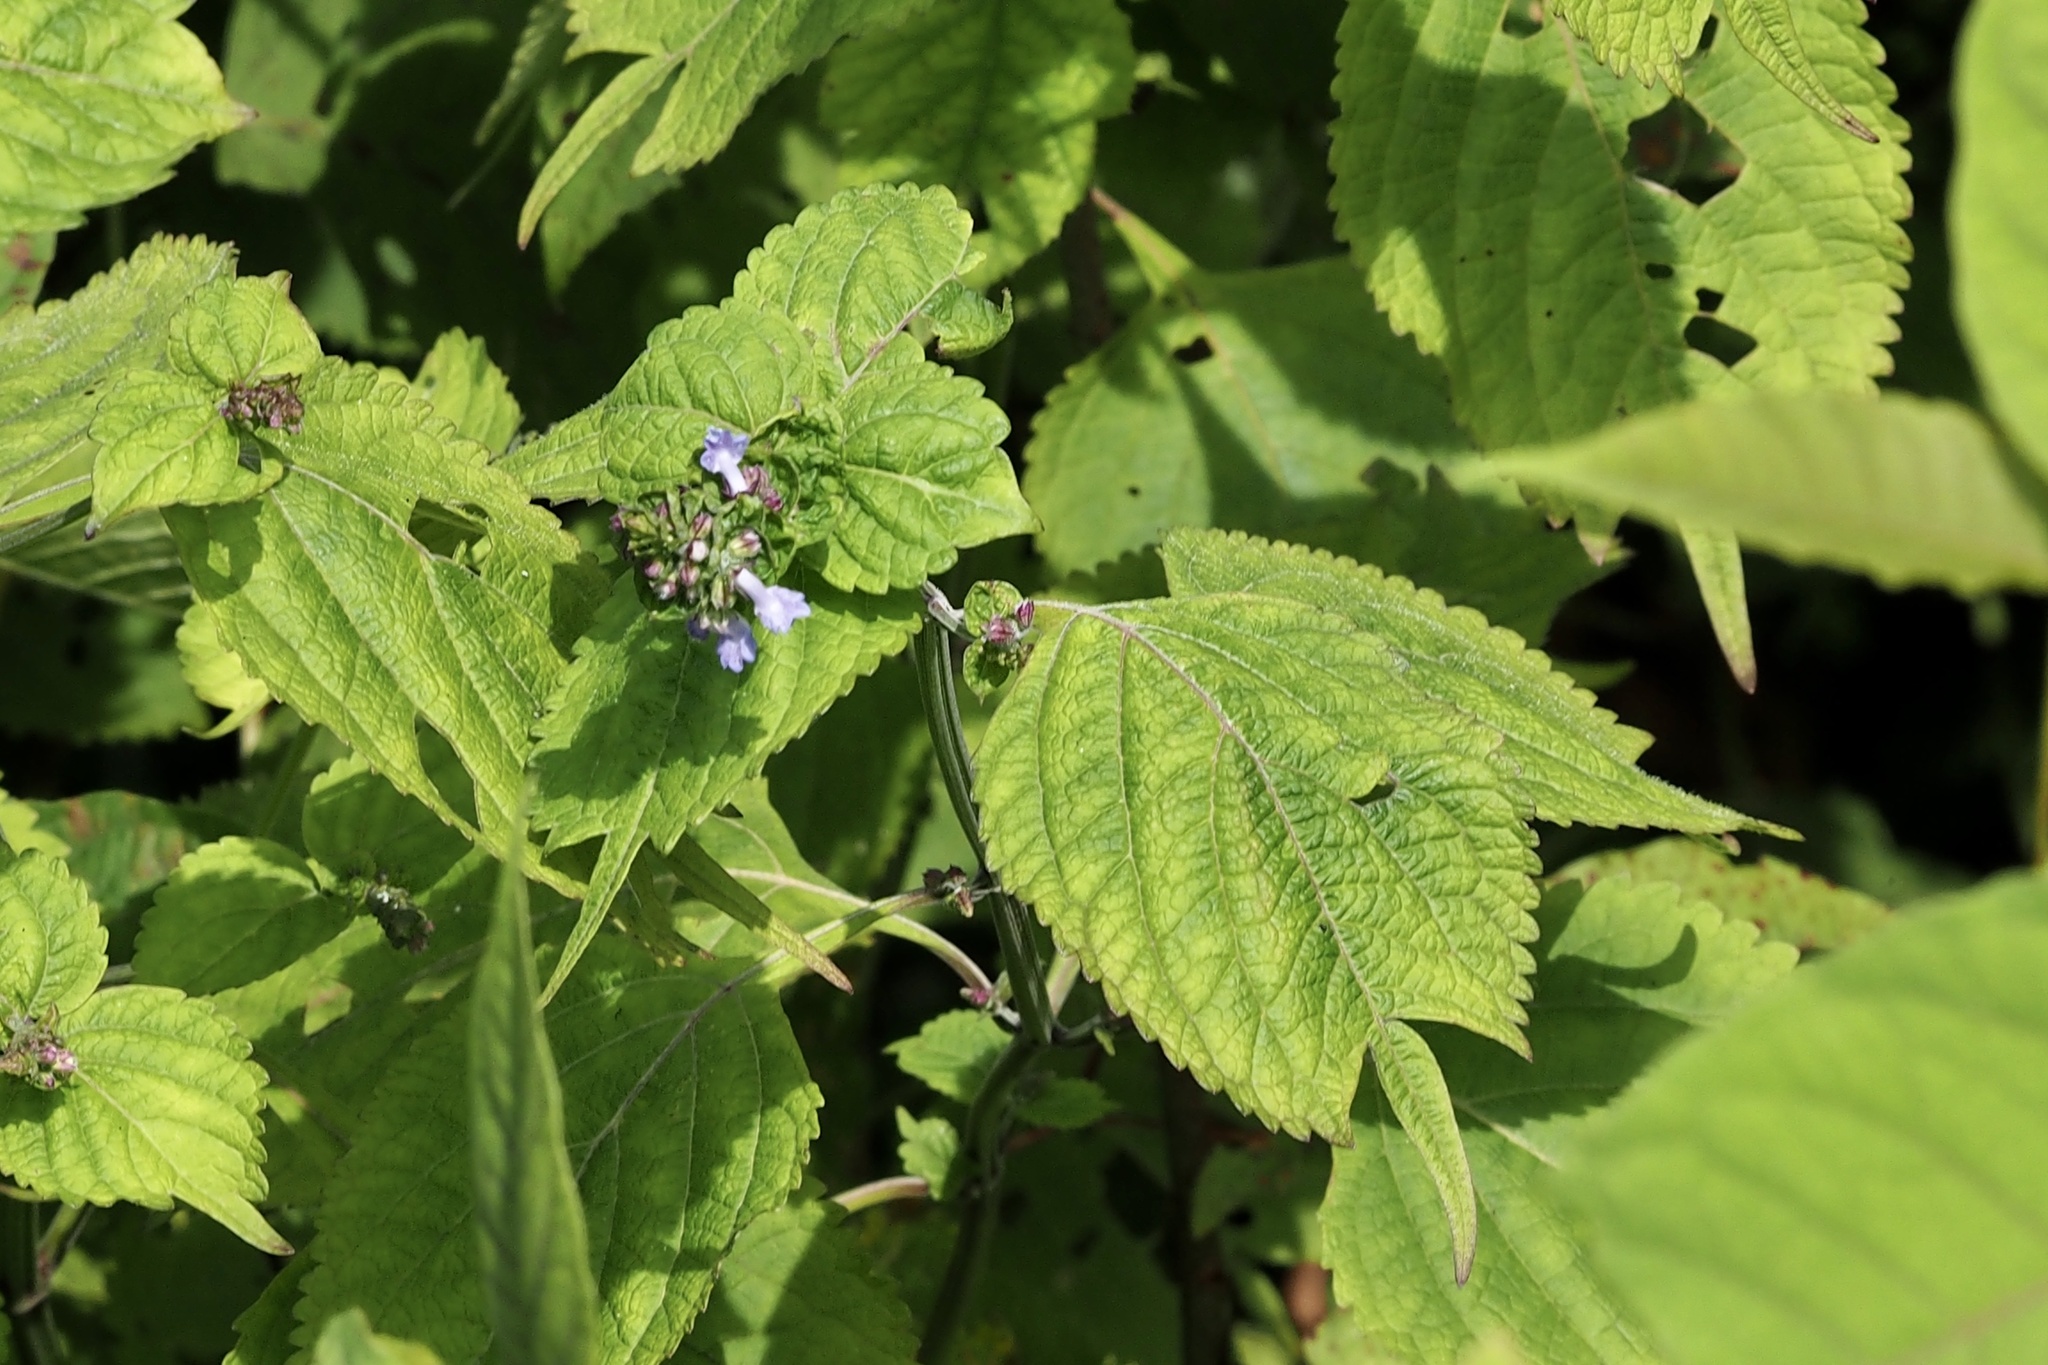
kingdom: Plantae
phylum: Tracheophyta
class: Magnoliopsida
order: Lamiales
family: Lamiaceae
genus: Isodon
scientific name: Isodon umbrosus
